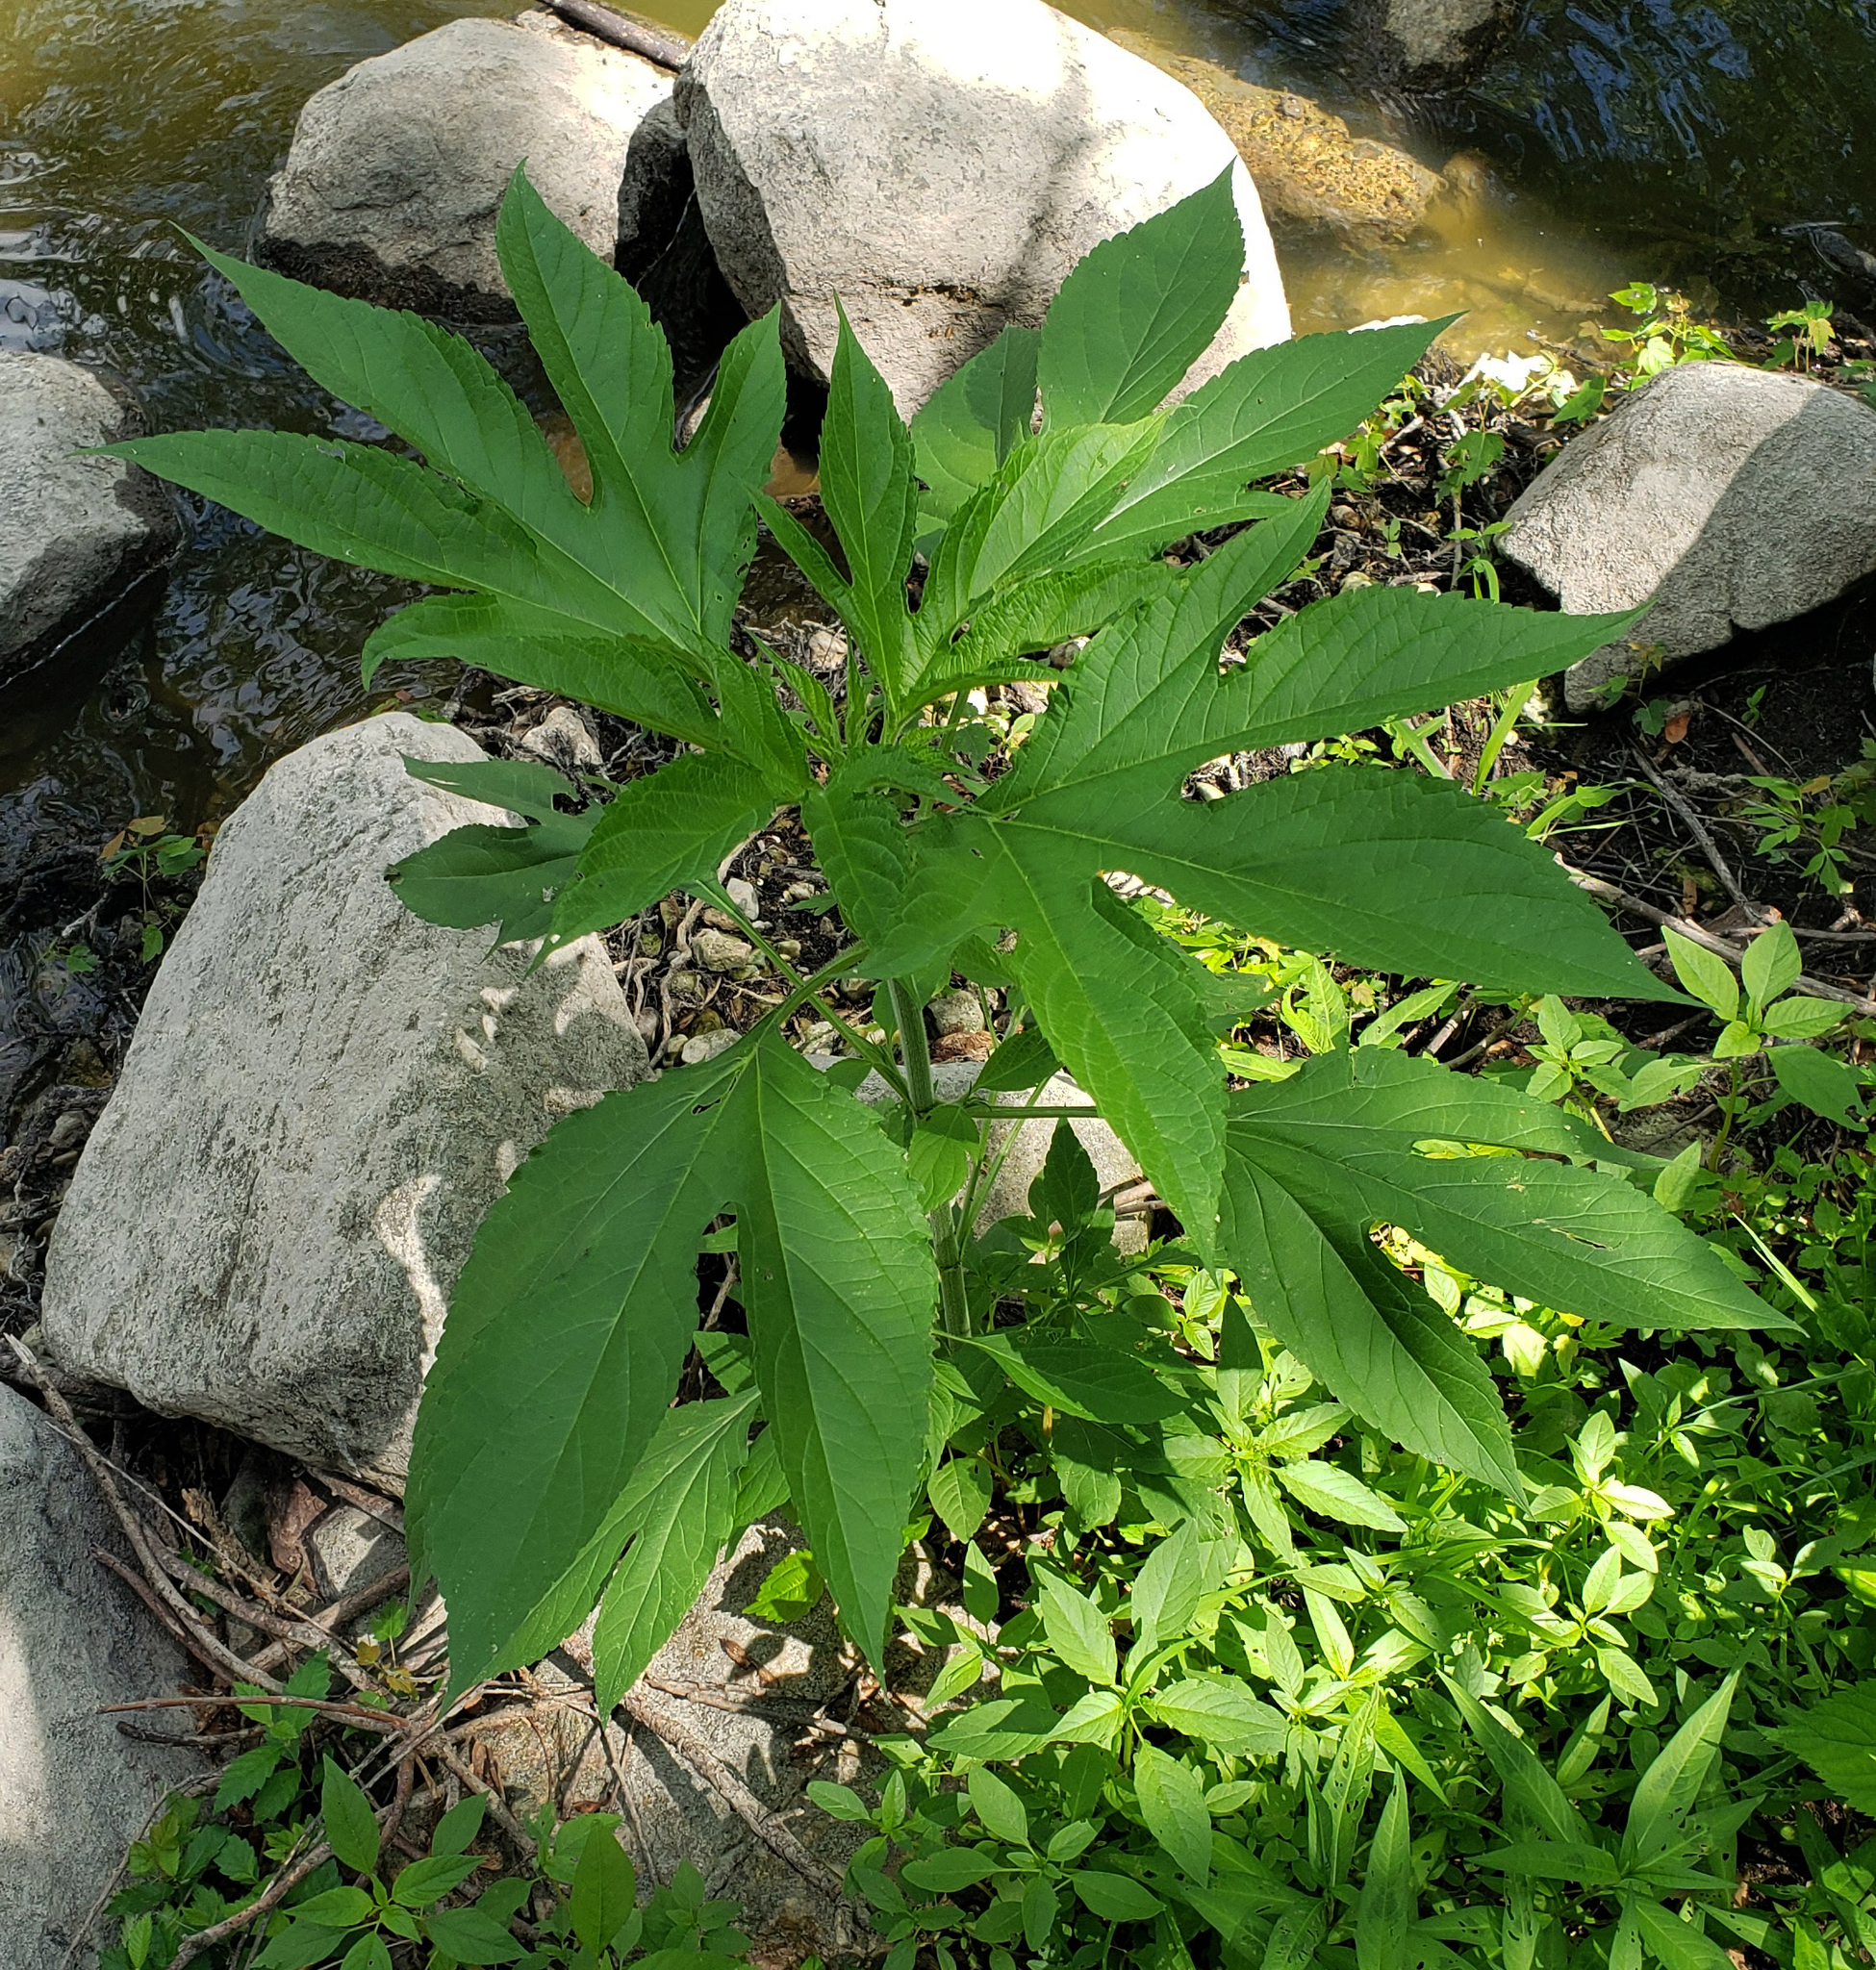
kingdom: Plantae
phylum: Tracheophyta
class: Magnoliopsida
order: Asterales
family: Asteraceae
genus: Ambrosia
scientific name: Ambrosia trifida
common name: Giant ragweed
